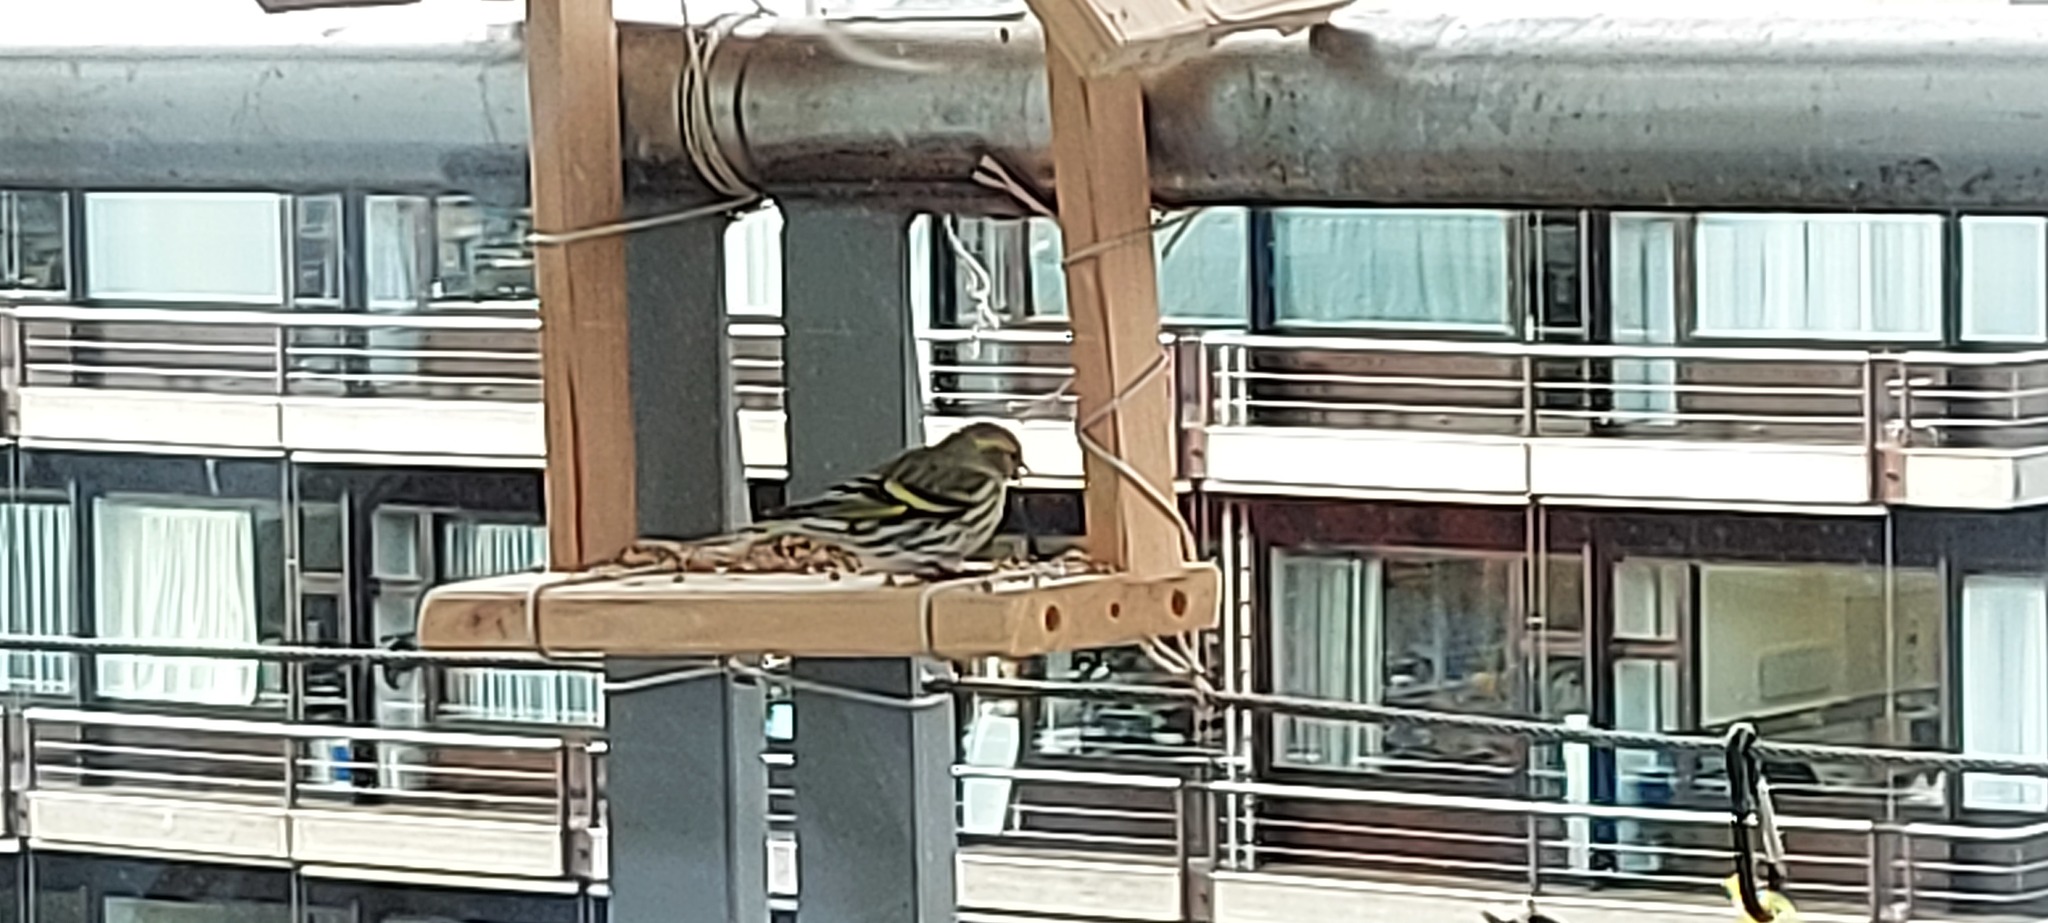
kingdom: Animalia
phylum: Chordata
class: Aves
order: Passeriformes
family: Fringillidae
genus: Spinus
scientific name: Spinus spinus
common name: Eurasian siskin
